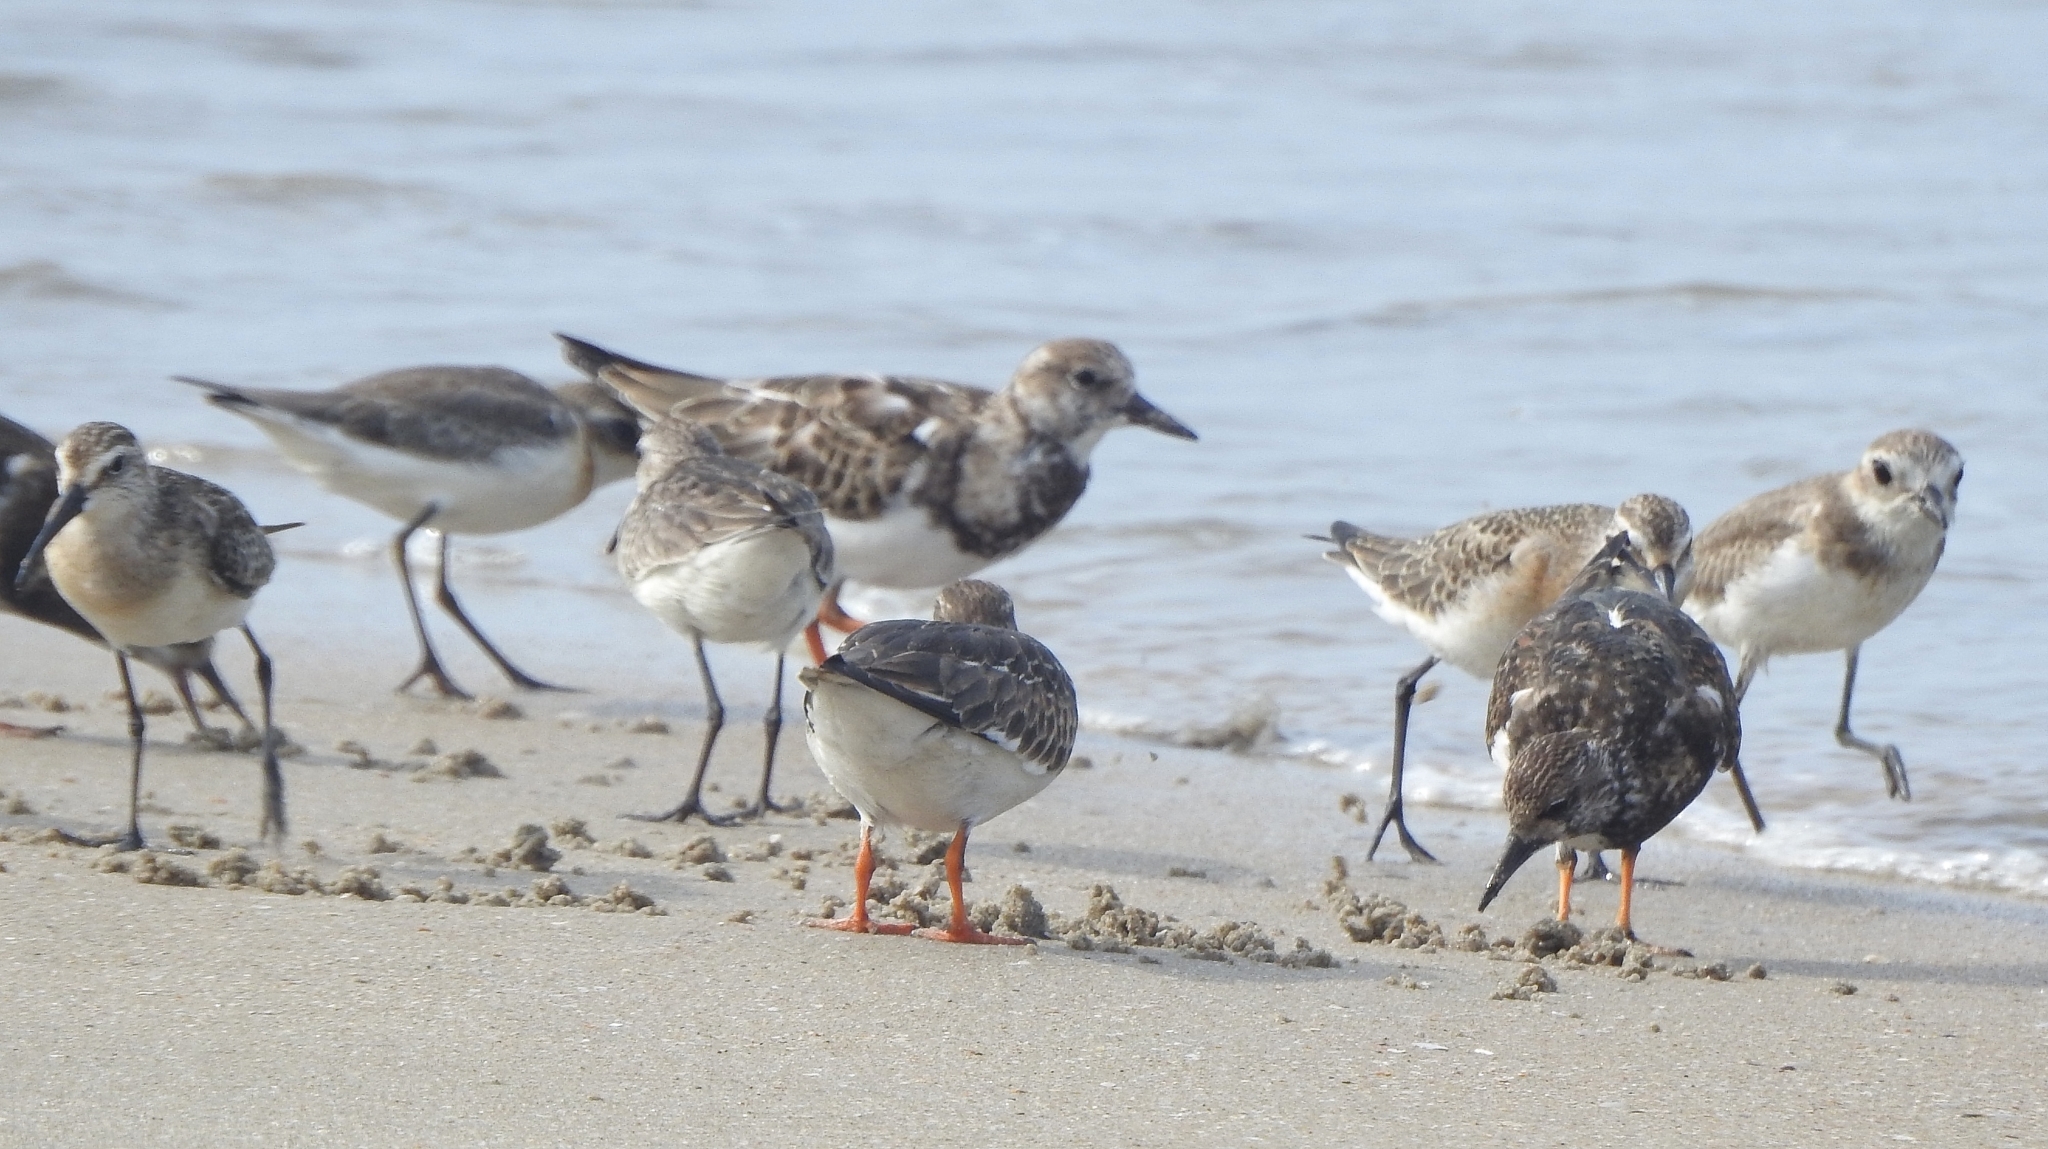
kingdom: Animalia
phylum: Chordata
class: Aves
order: Charadriiformes
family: Scolopacidae
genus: Arenaria
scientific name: Arenaria interpres
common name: Ruddy turnstone
